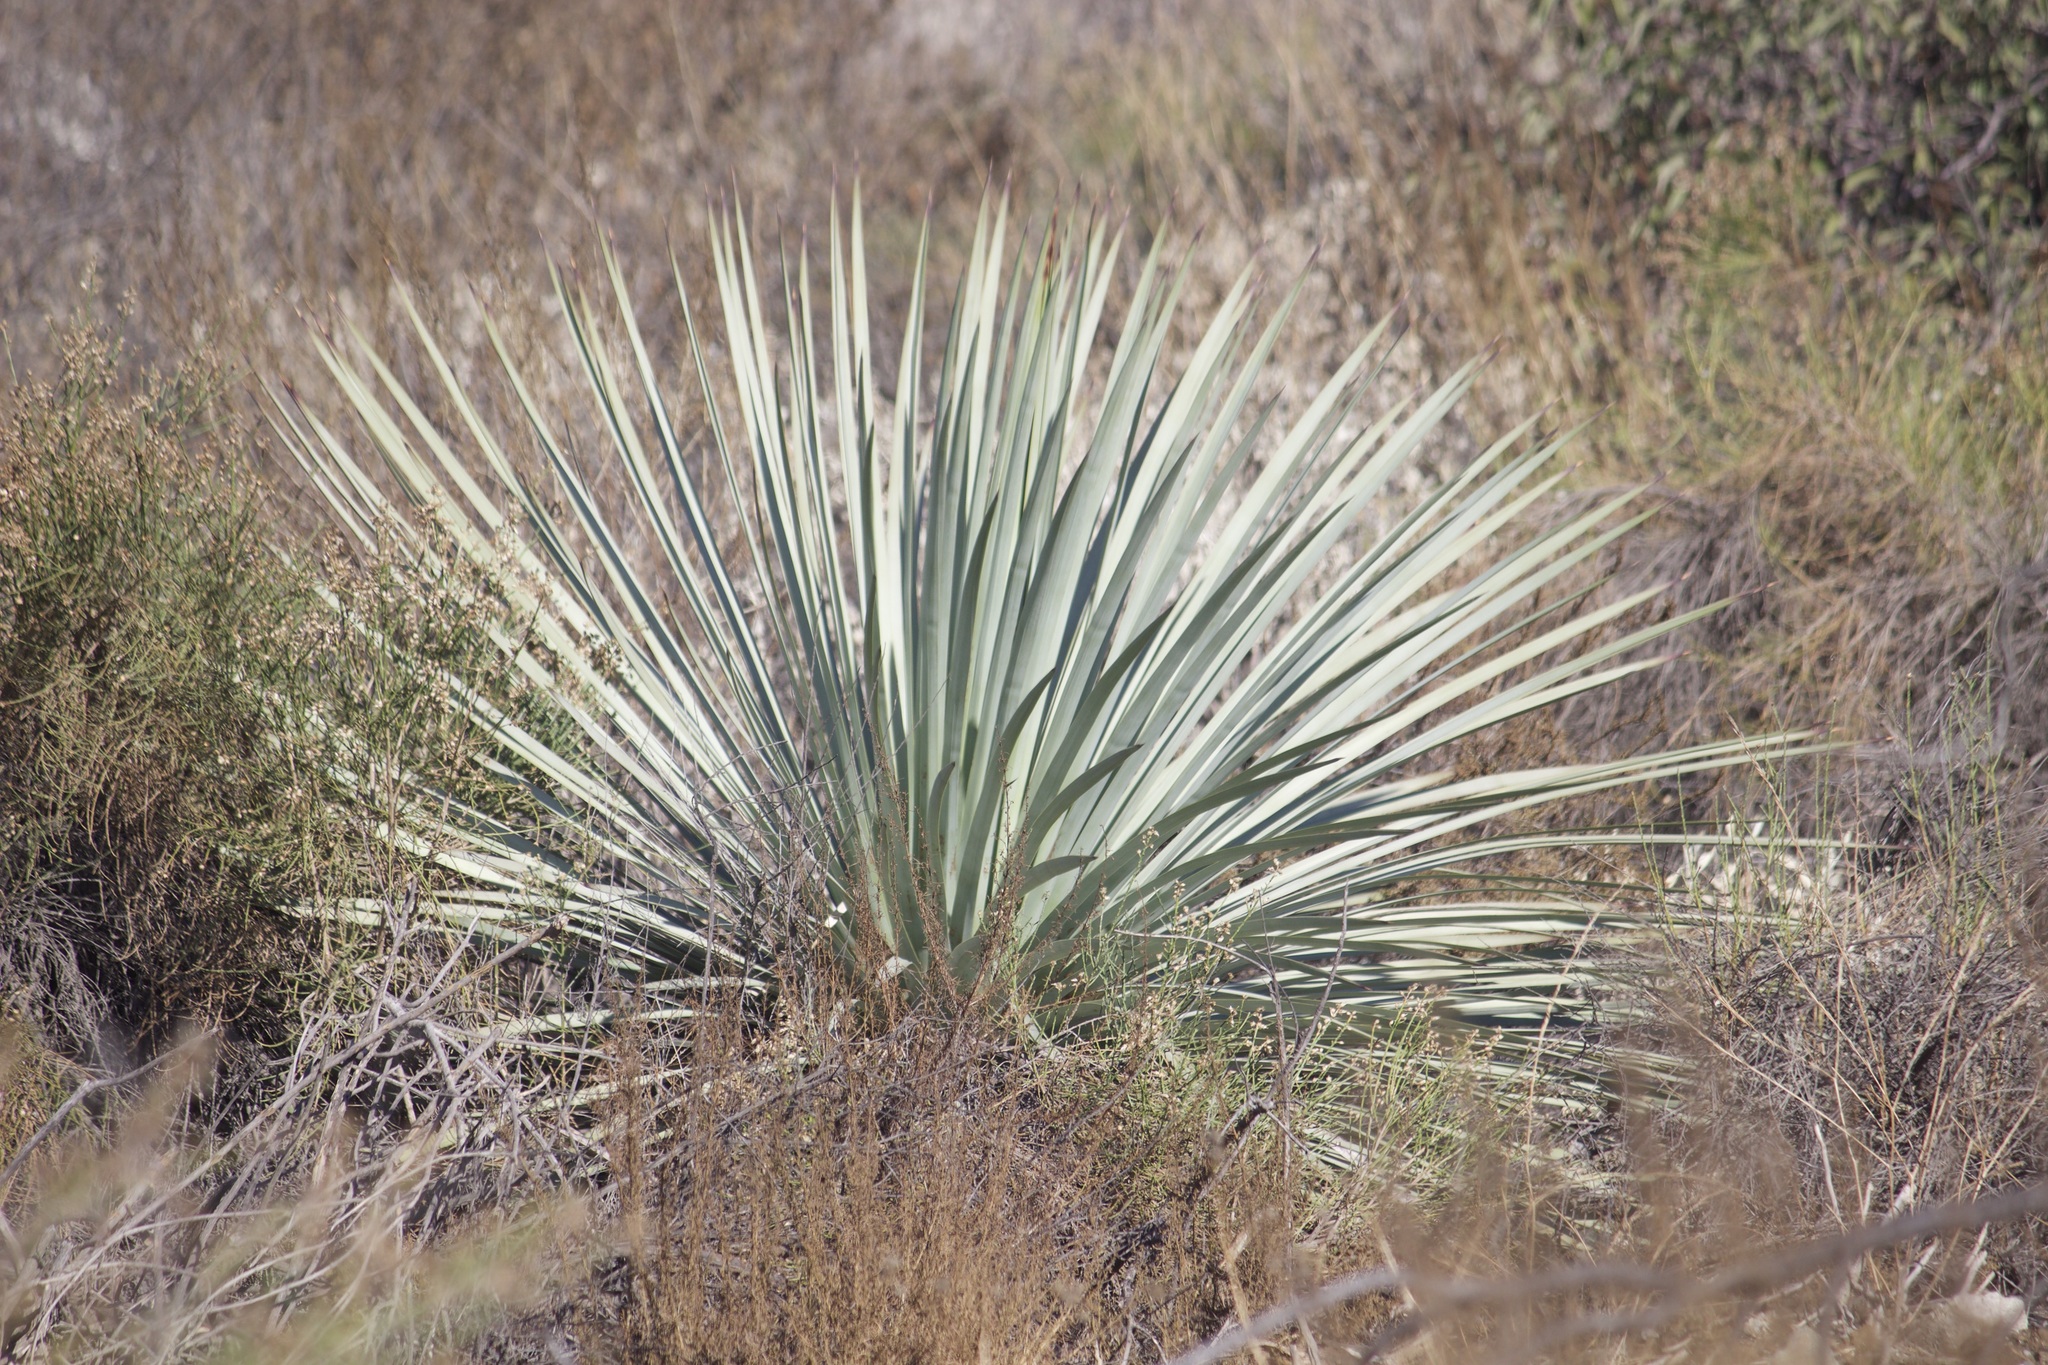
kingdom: Plantae
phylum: Tracheophyta
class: Liliopsida
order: Asparagales
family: Asparagaceae
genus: Hesperoyucca
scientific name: Hesperoyucca whipplei
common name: Our lord's-candle
